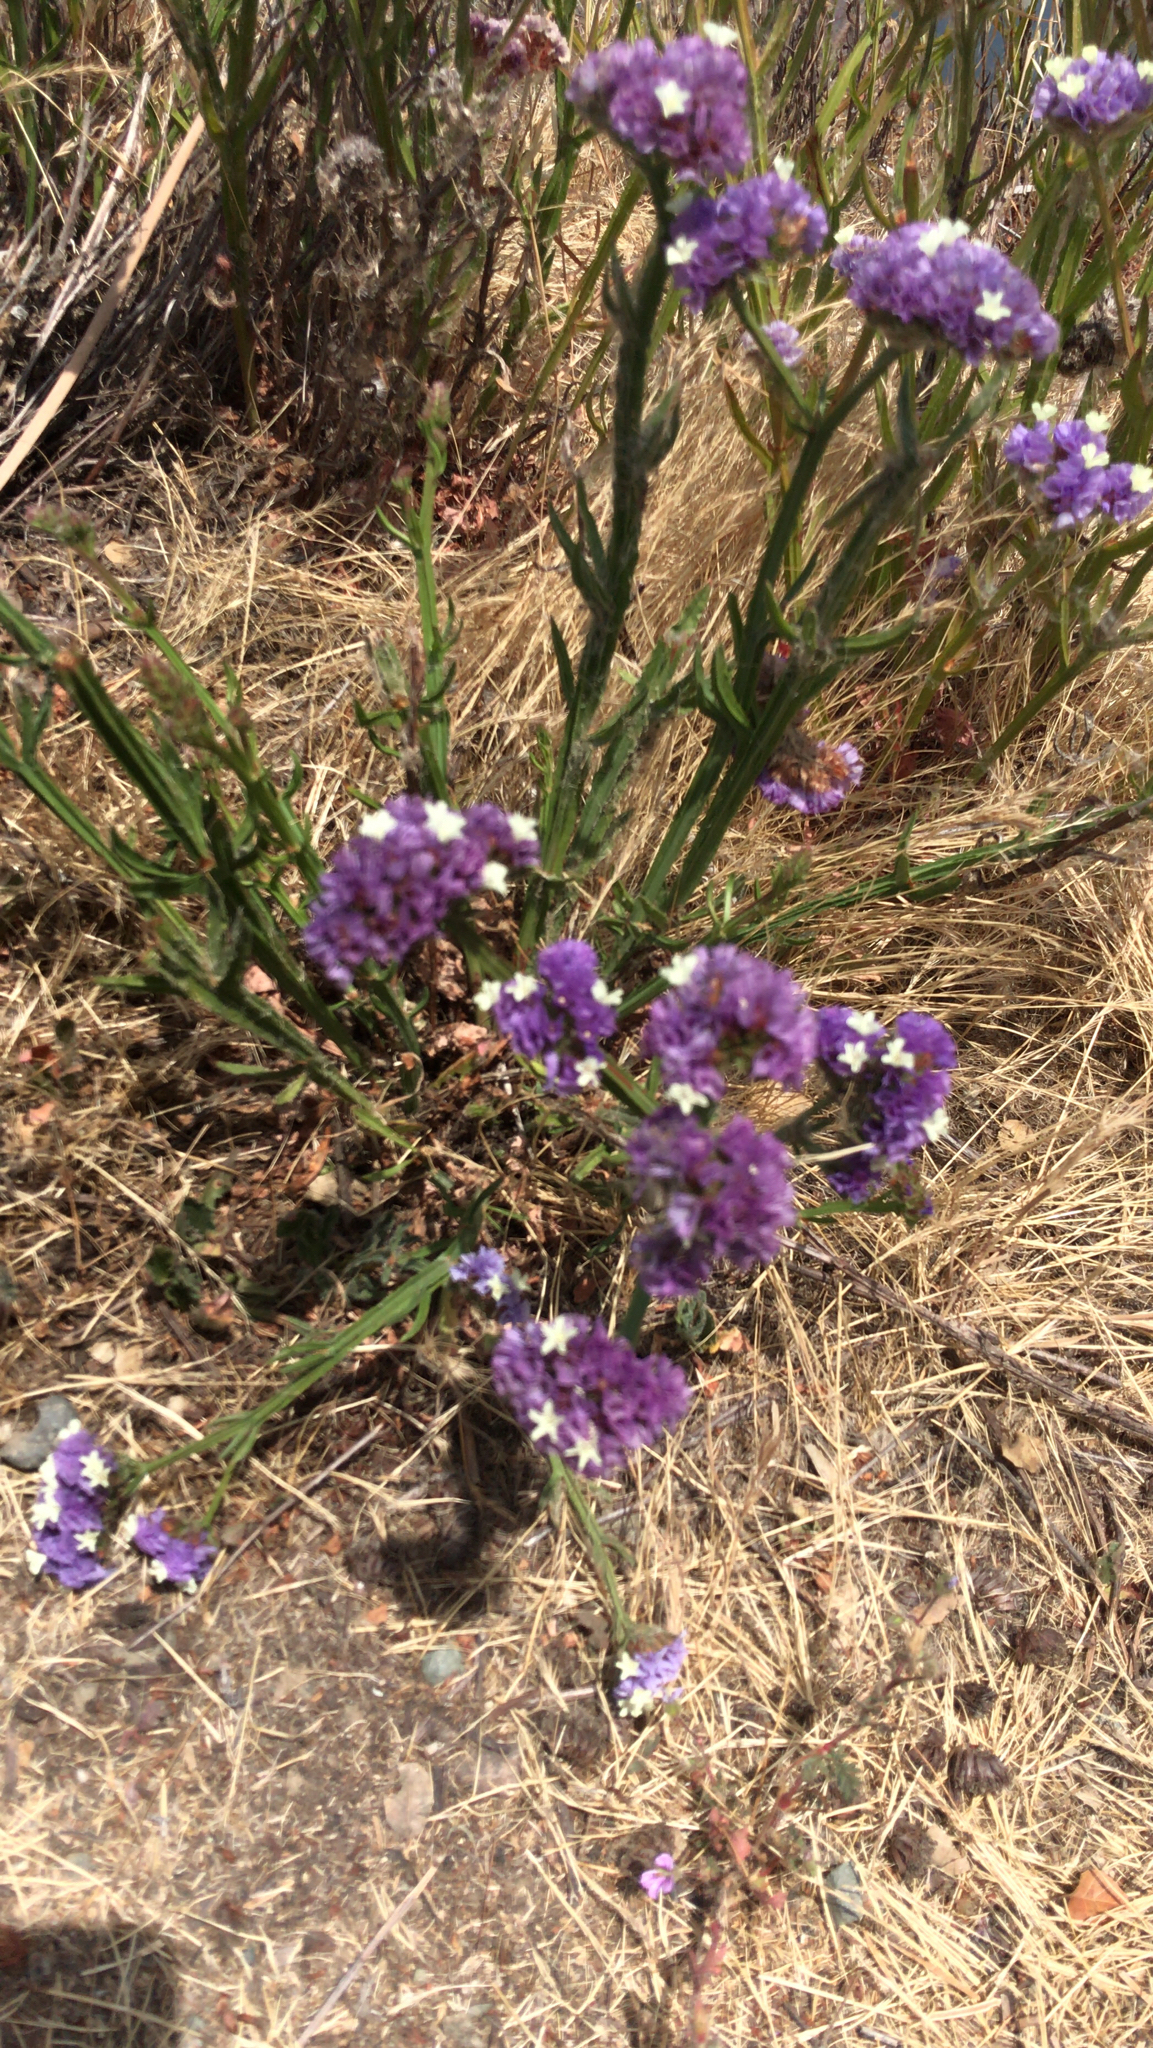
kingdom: Plantae
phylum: Tracheophyta
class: Magnoliopsida
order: Caryophyllales
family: Plumbaginaceae
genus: Limonium
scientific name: Limonium sinuatum
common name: Statice
